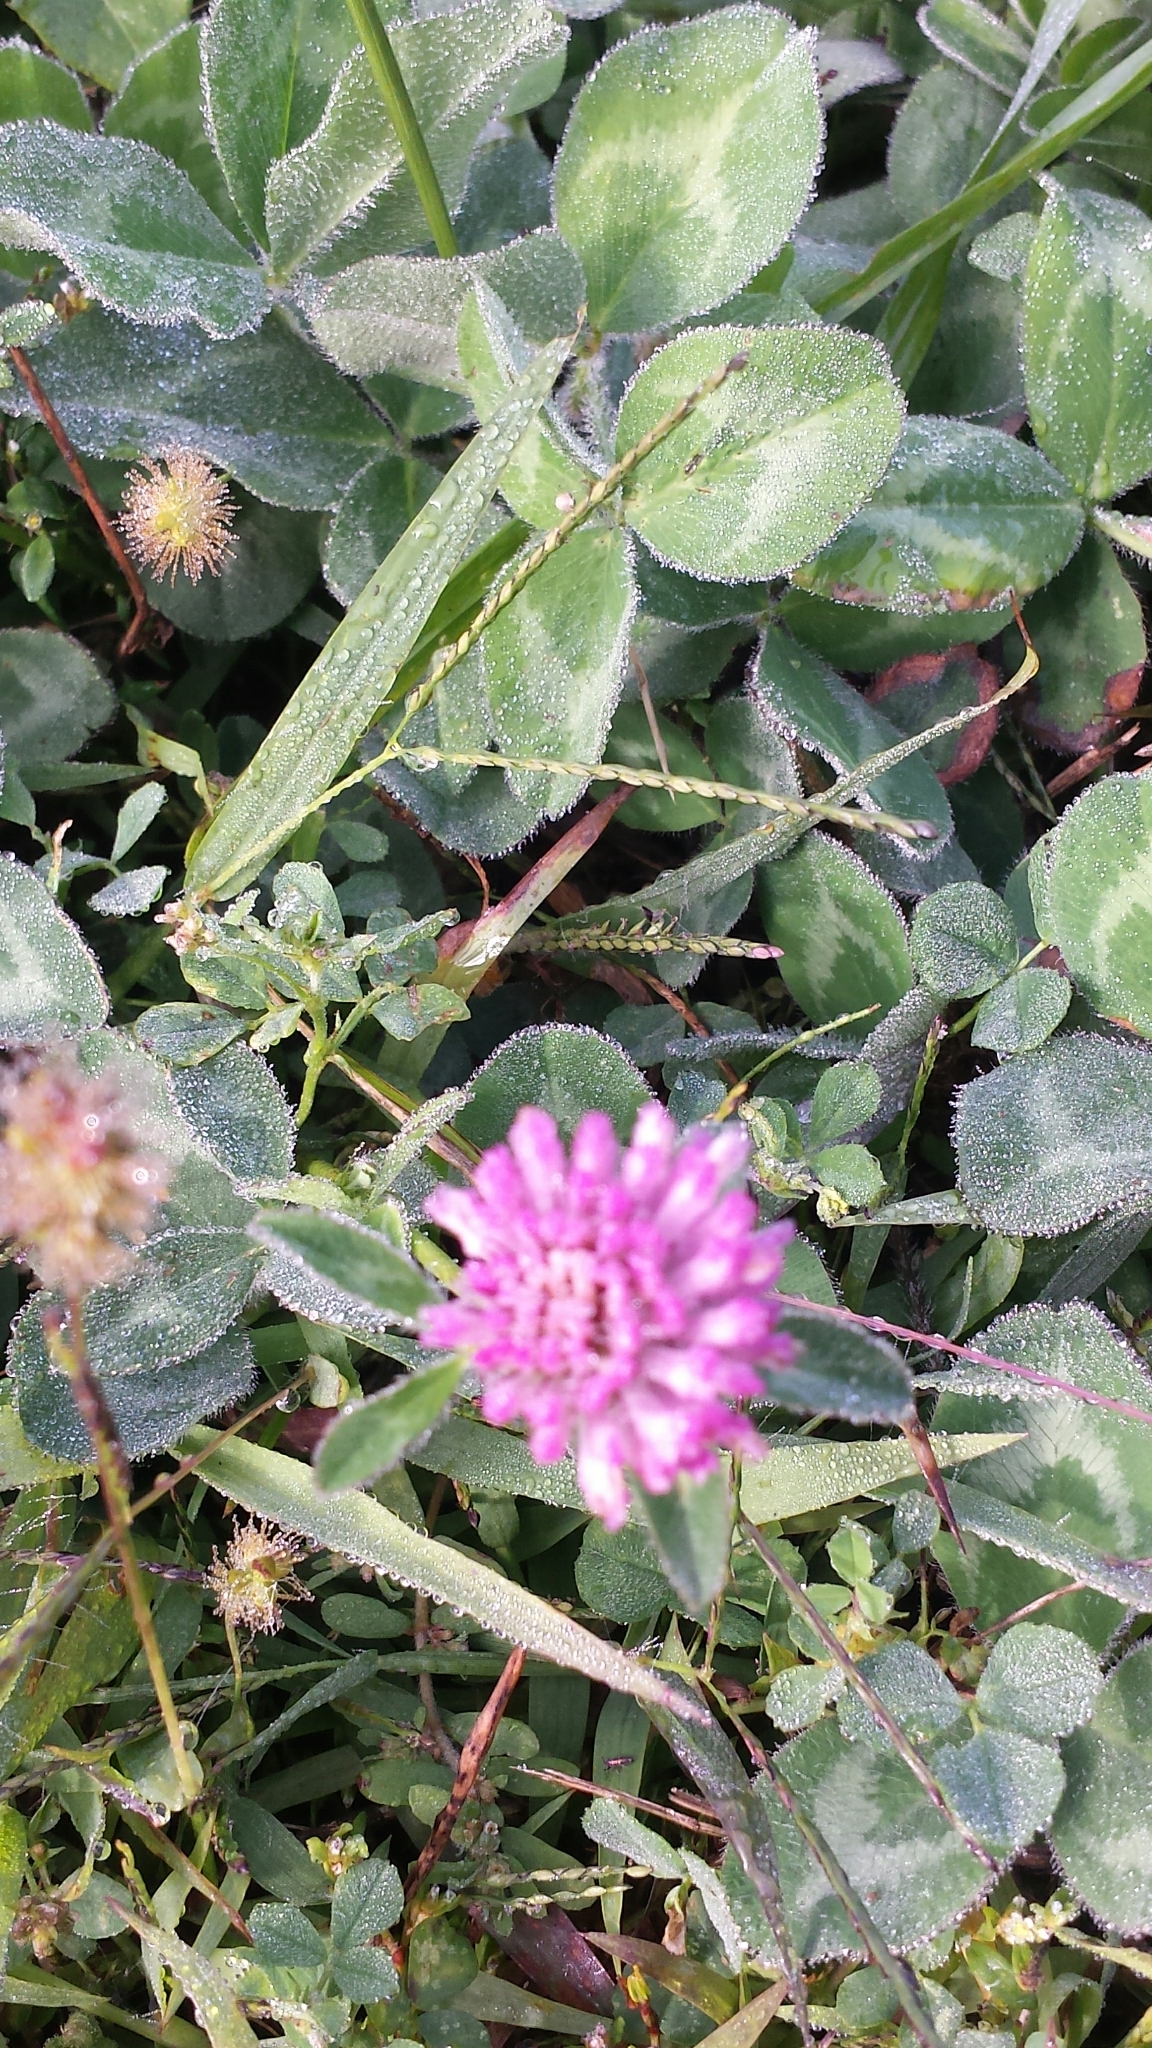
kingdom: Plantae
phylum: Tracheophyta
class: Magnoliopsida
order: Fabales
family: Fabaceae
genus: Trifolium
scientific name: Trifolium pratense
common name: Red clover
